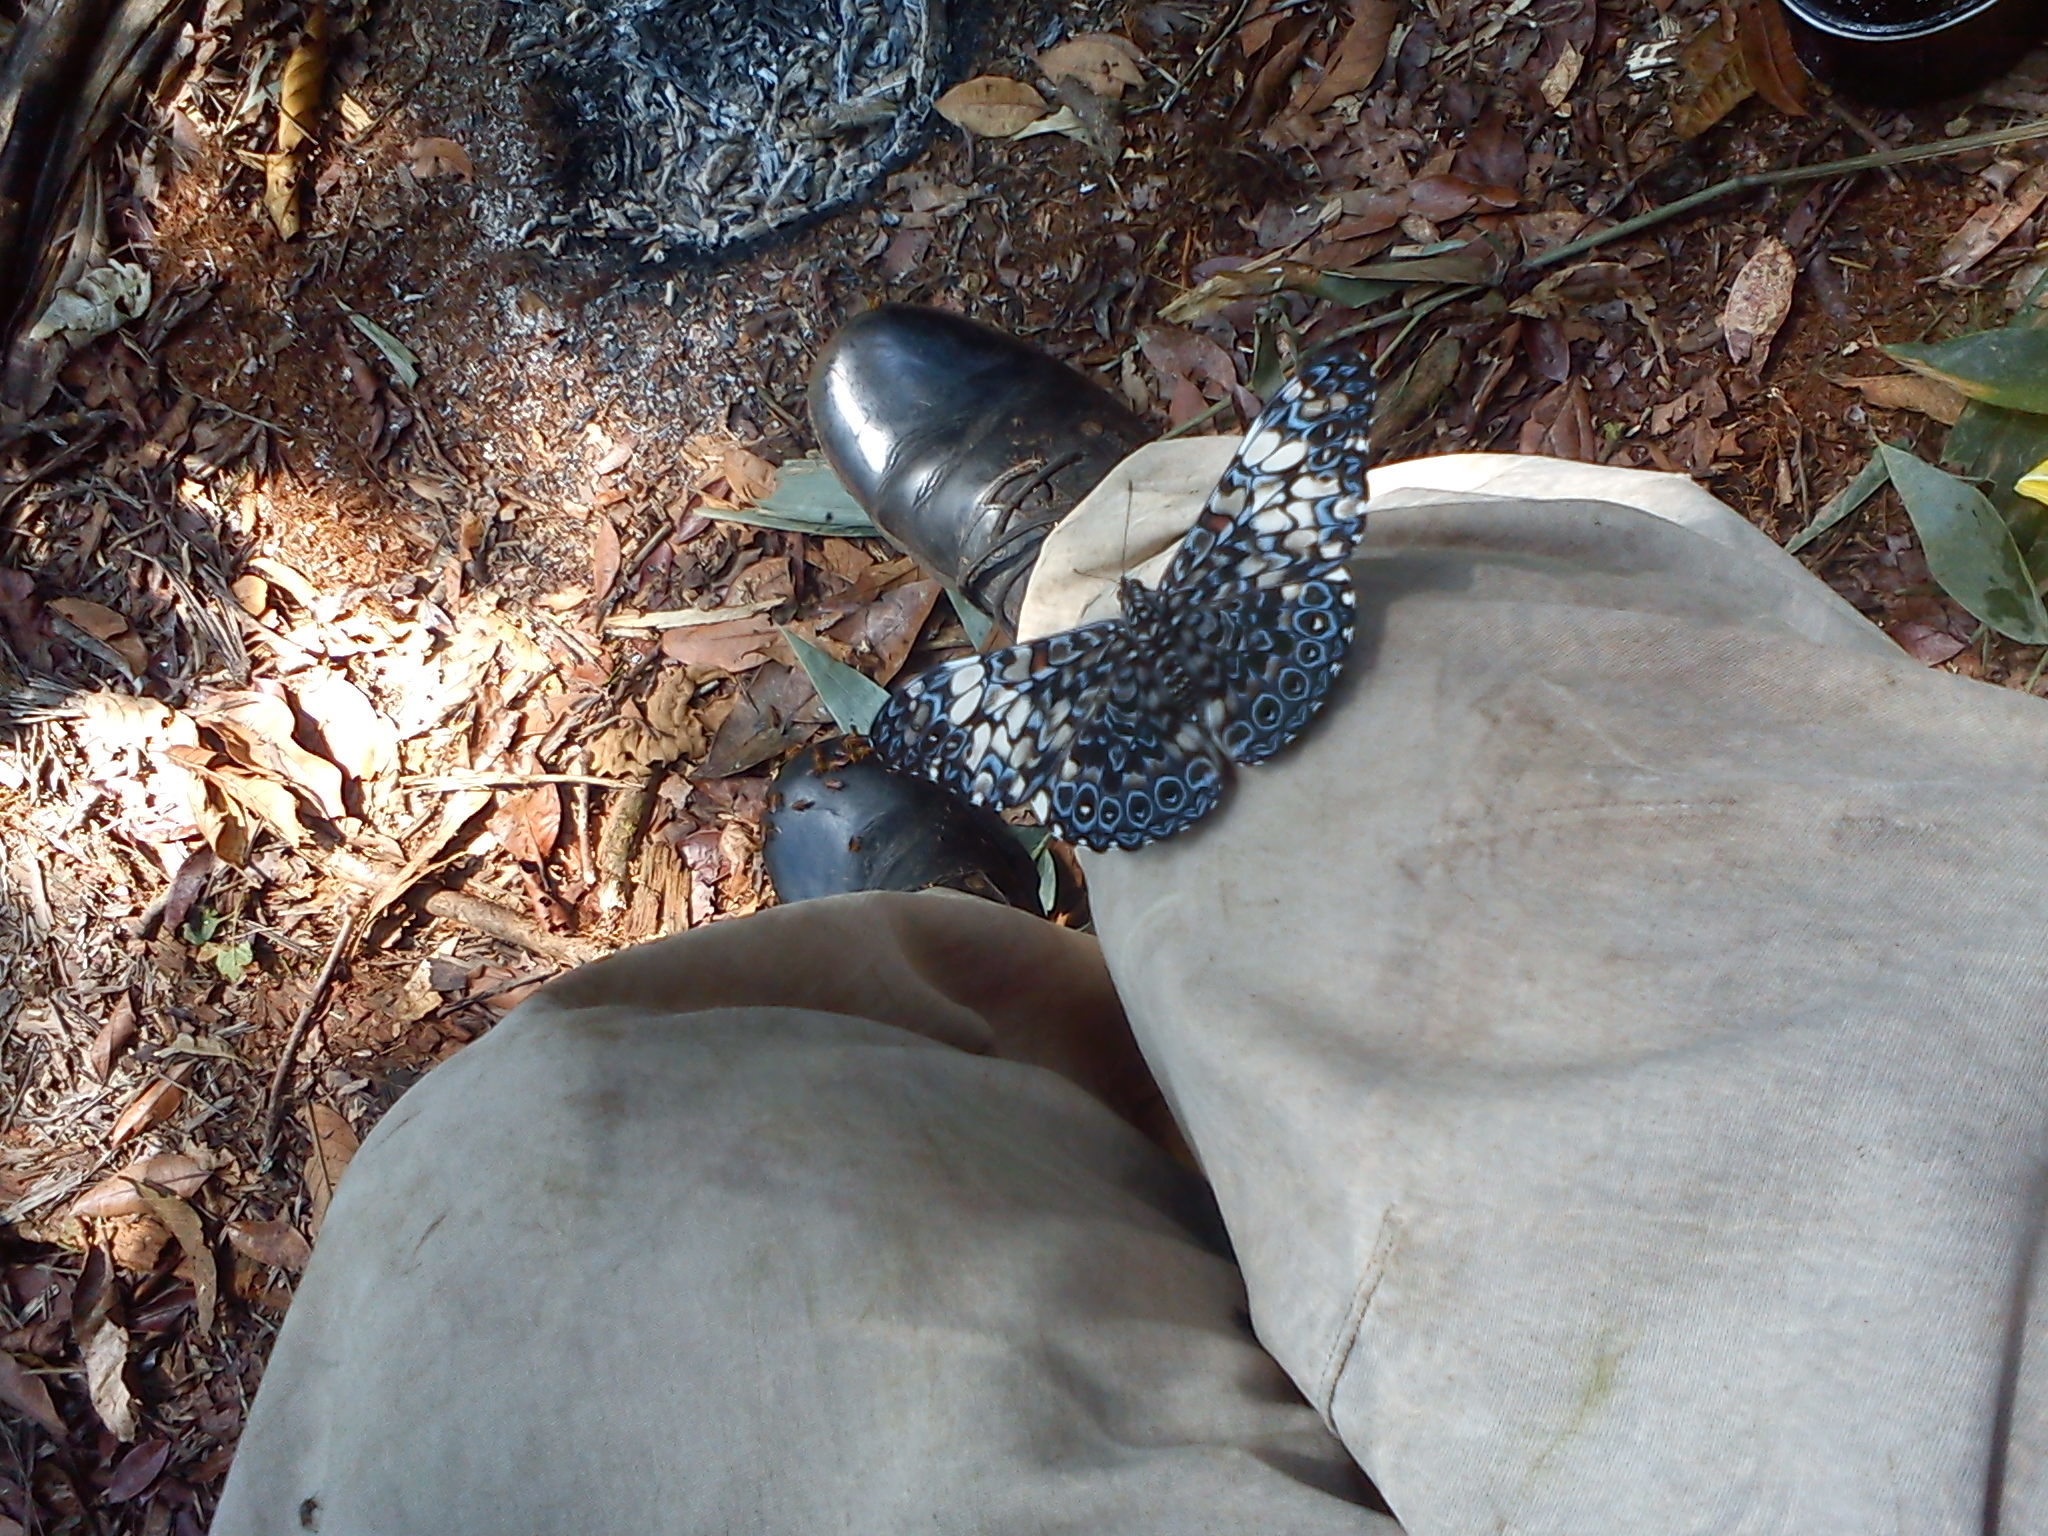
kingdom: Animalia
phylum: Arthropoda
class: Insecta
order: Lepidoptera
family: Nymphalidae
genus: Hamadryas
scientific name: Hamadryas fornax
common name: Orange cracker
